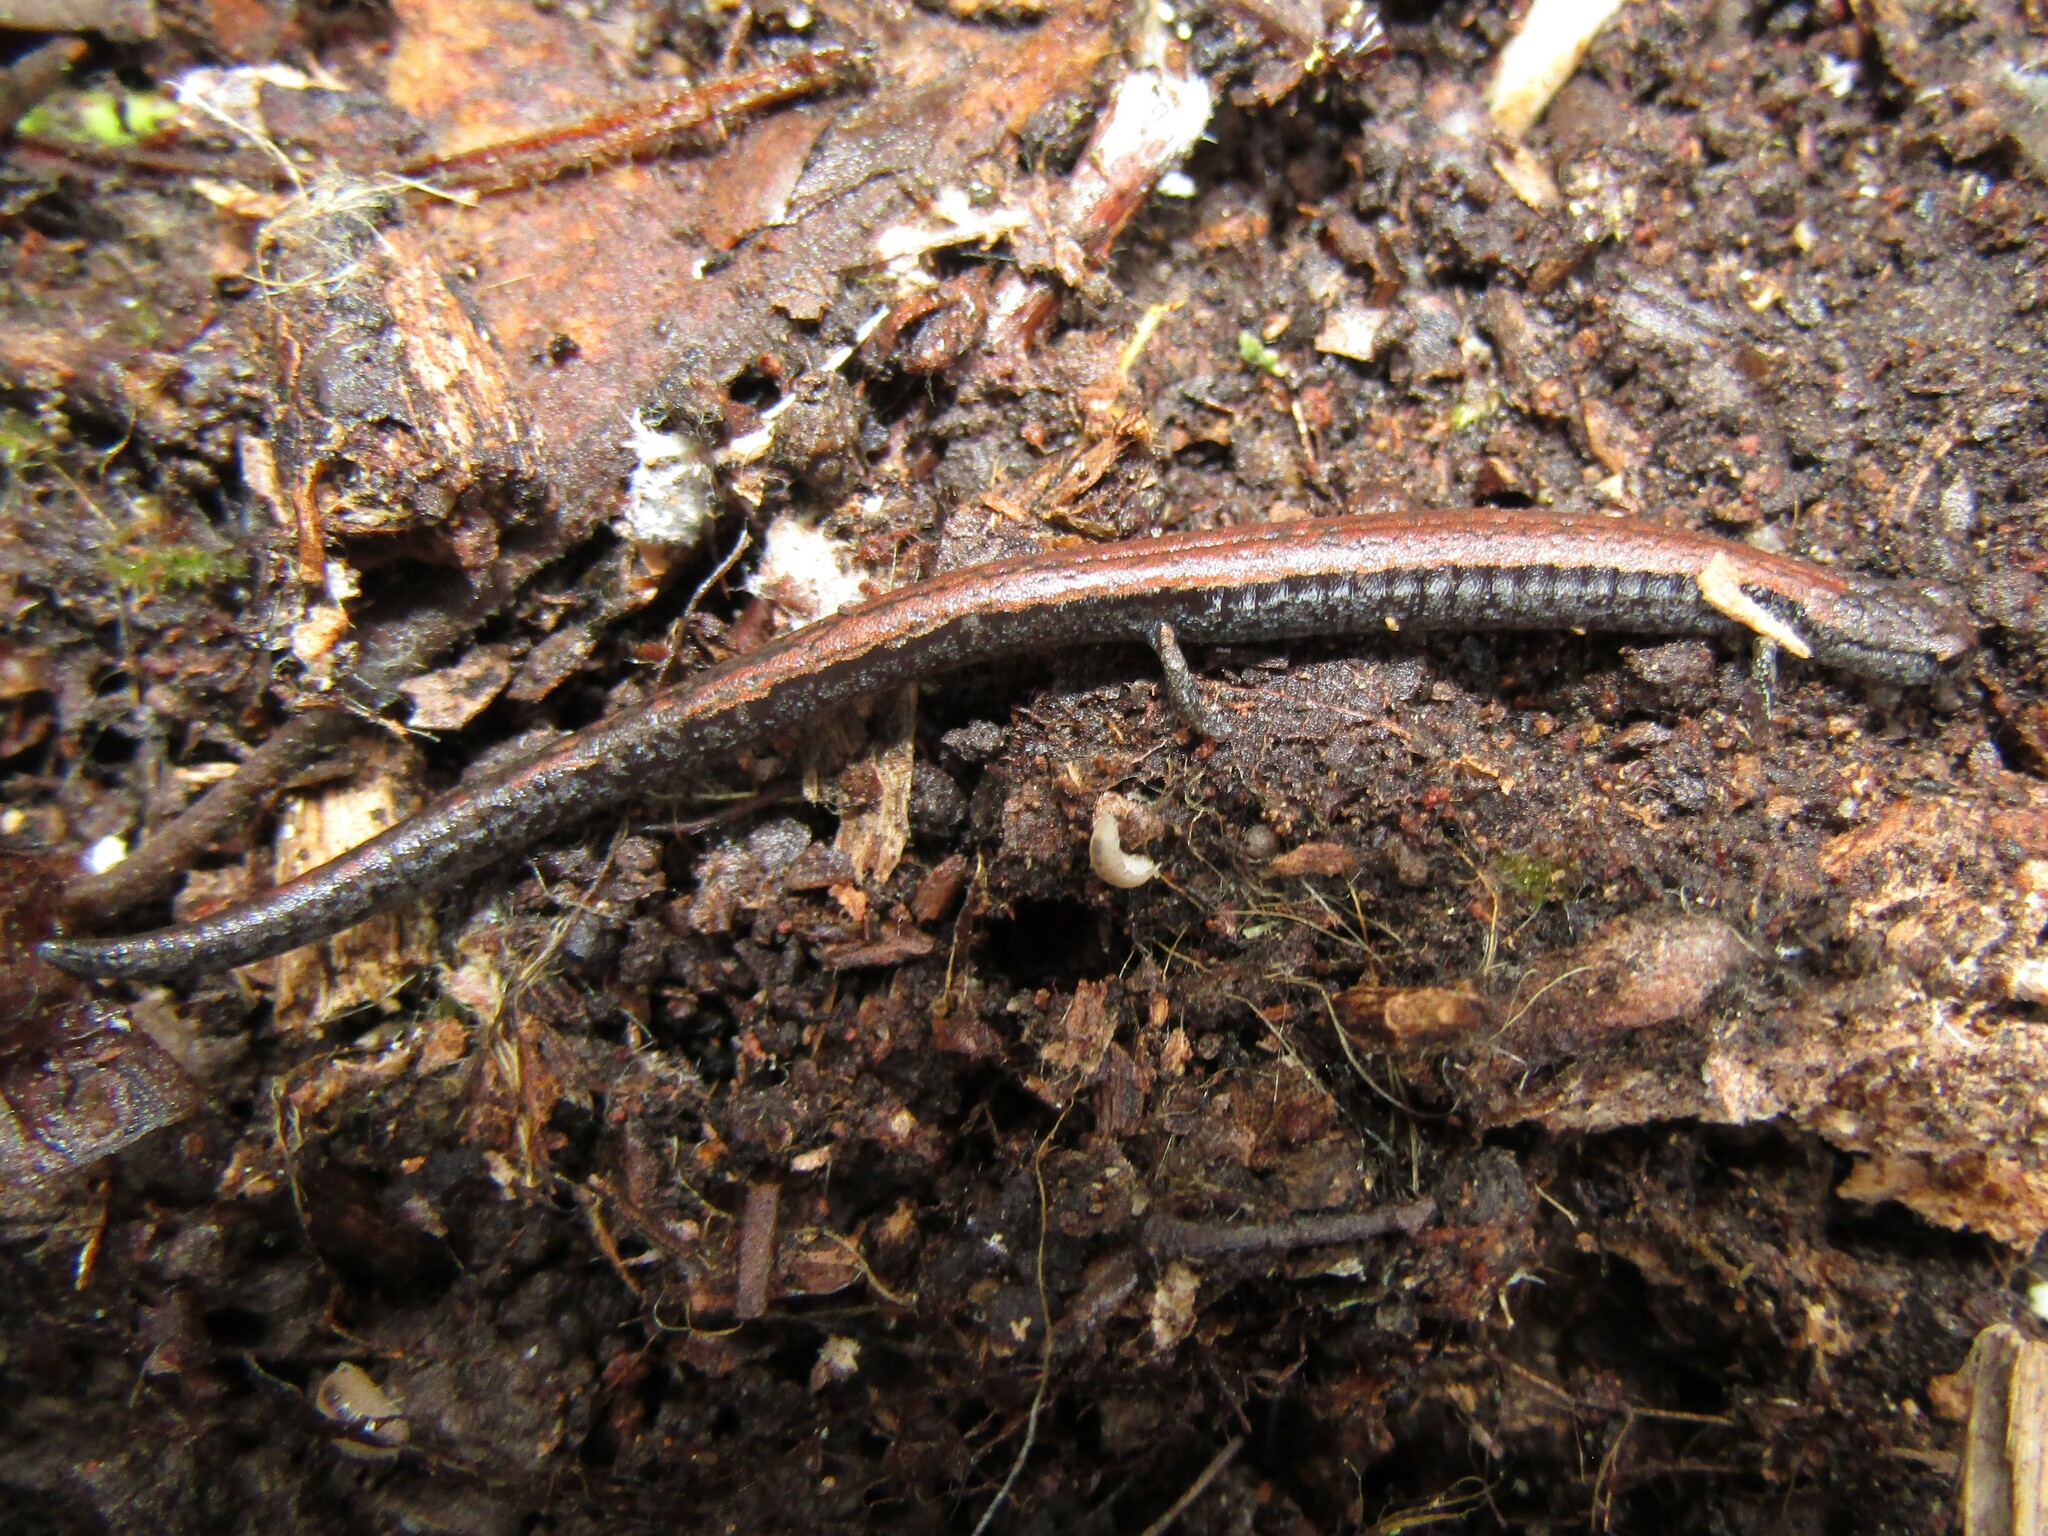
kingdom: Animalia
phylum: Chordata
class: Amphibia
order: Caudata
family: Plethodontidae
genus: Batrachoseps
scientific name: Batrachoseps nigriventris
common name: Black-bellied slender salamander
